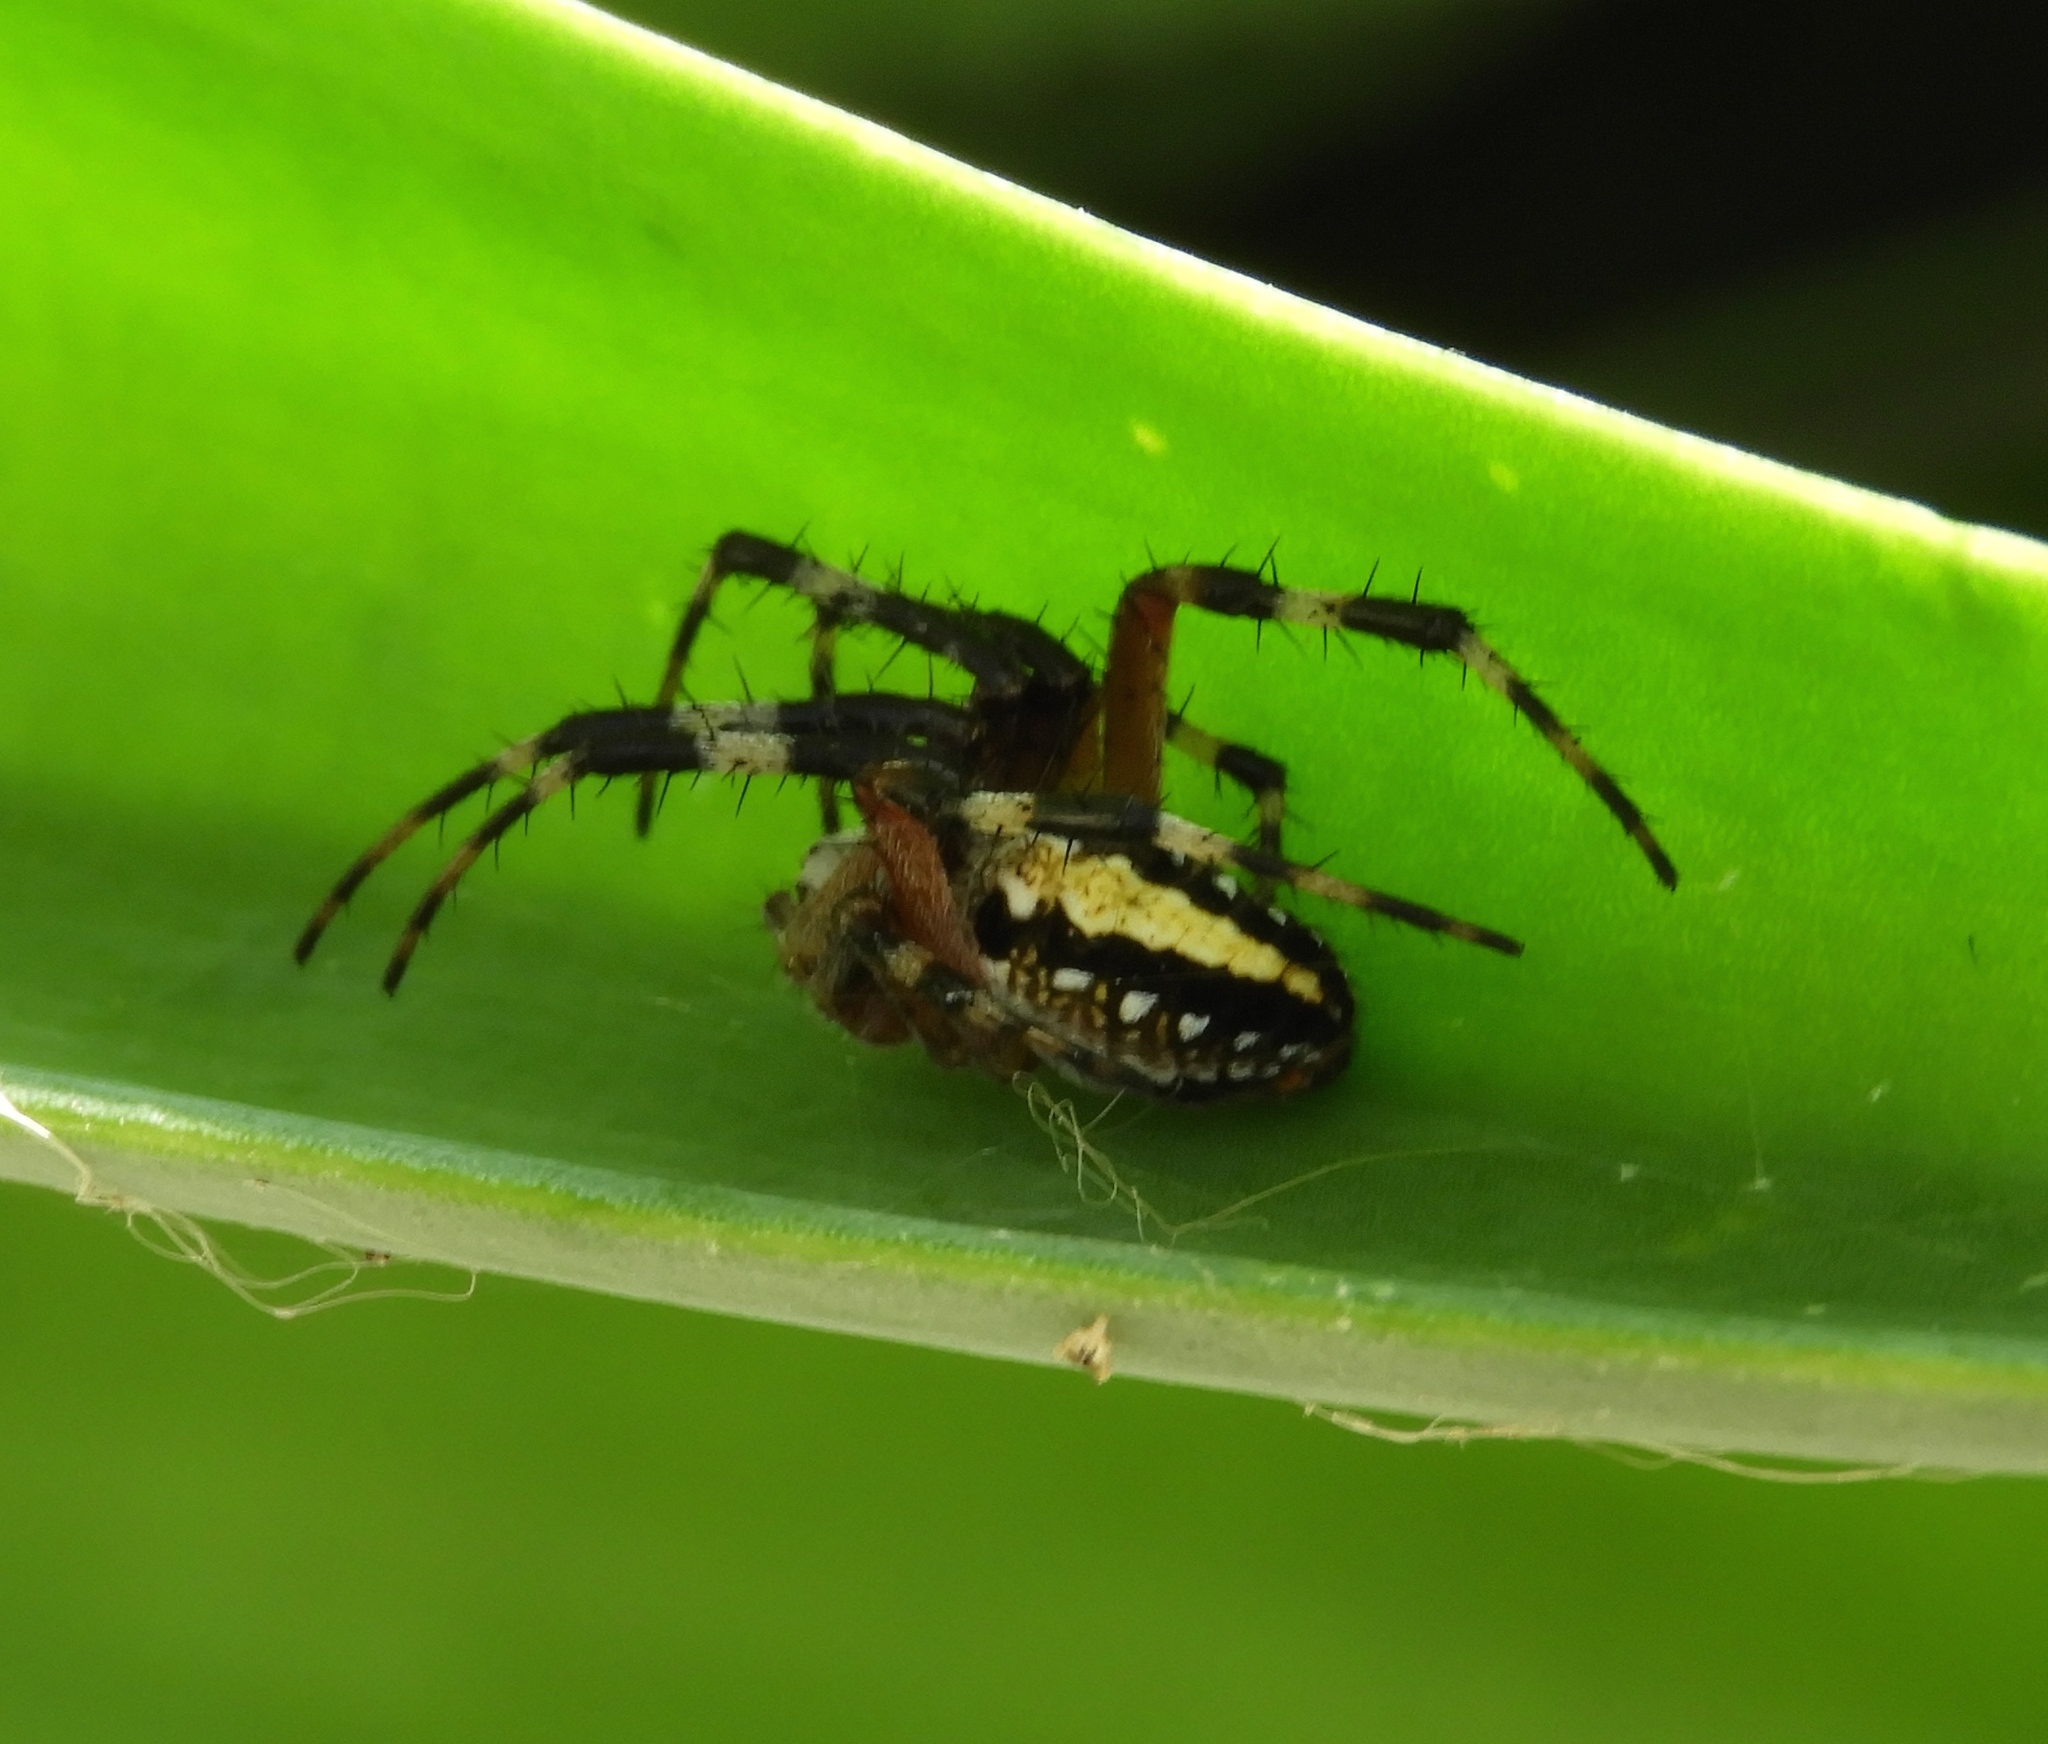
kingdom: Animalia
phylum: Arthropoda
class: Arachnida
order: Araneae
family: Araneidae
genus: Neoscona
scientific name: Neoscona oaxacensis
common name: Orb weavers
